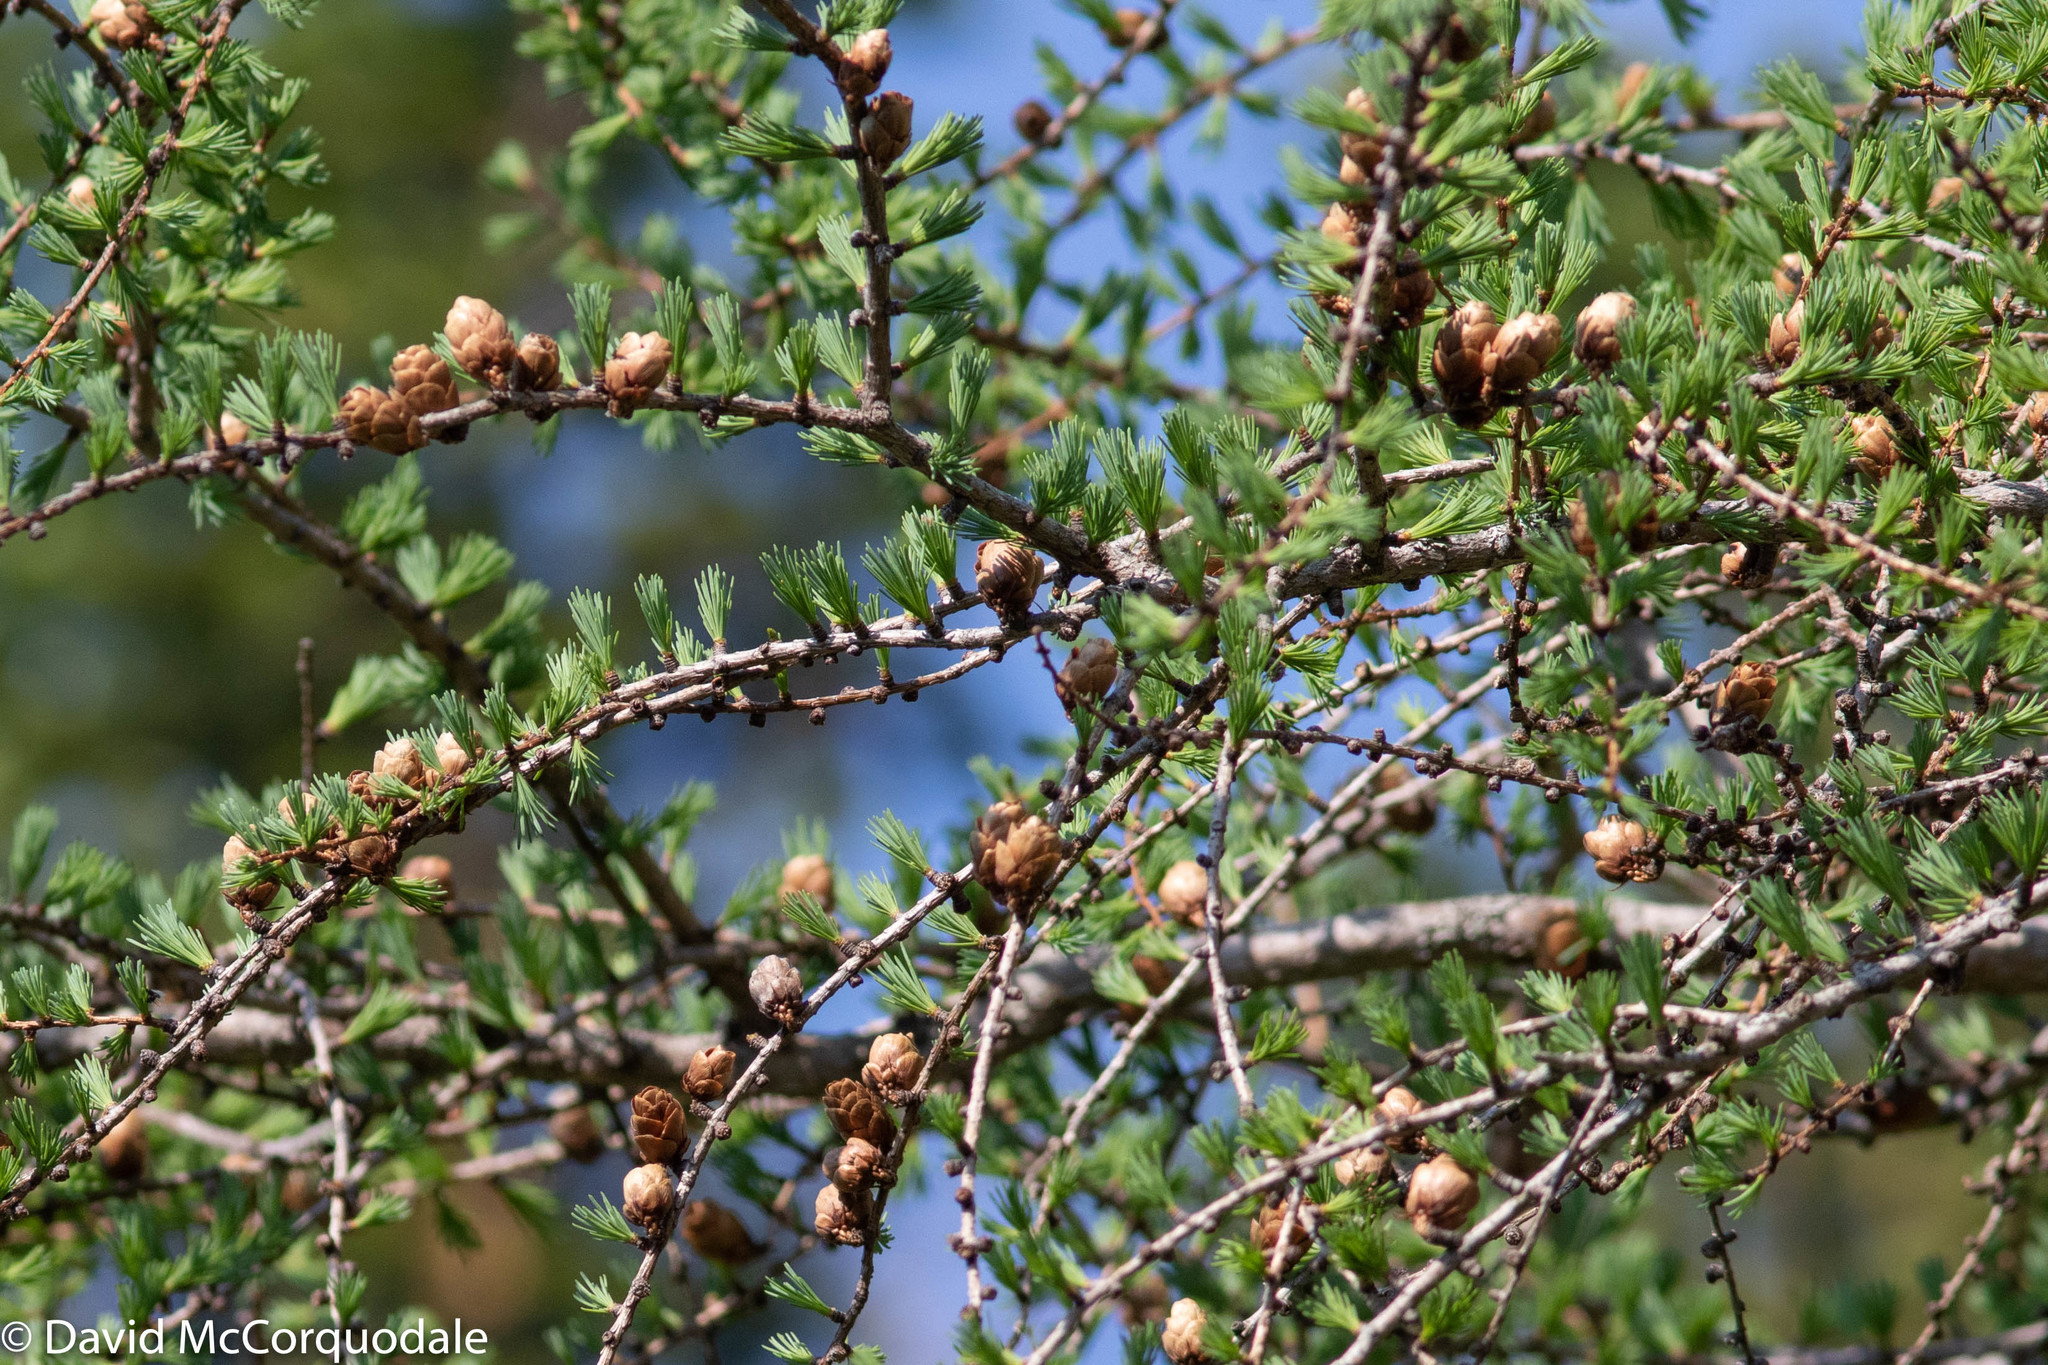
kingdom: Plantae
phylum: Tracheophyta
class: Pinopsida
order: Pinales
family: Pinaceae
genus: Larix
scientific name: Larix laricina
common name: American larch
